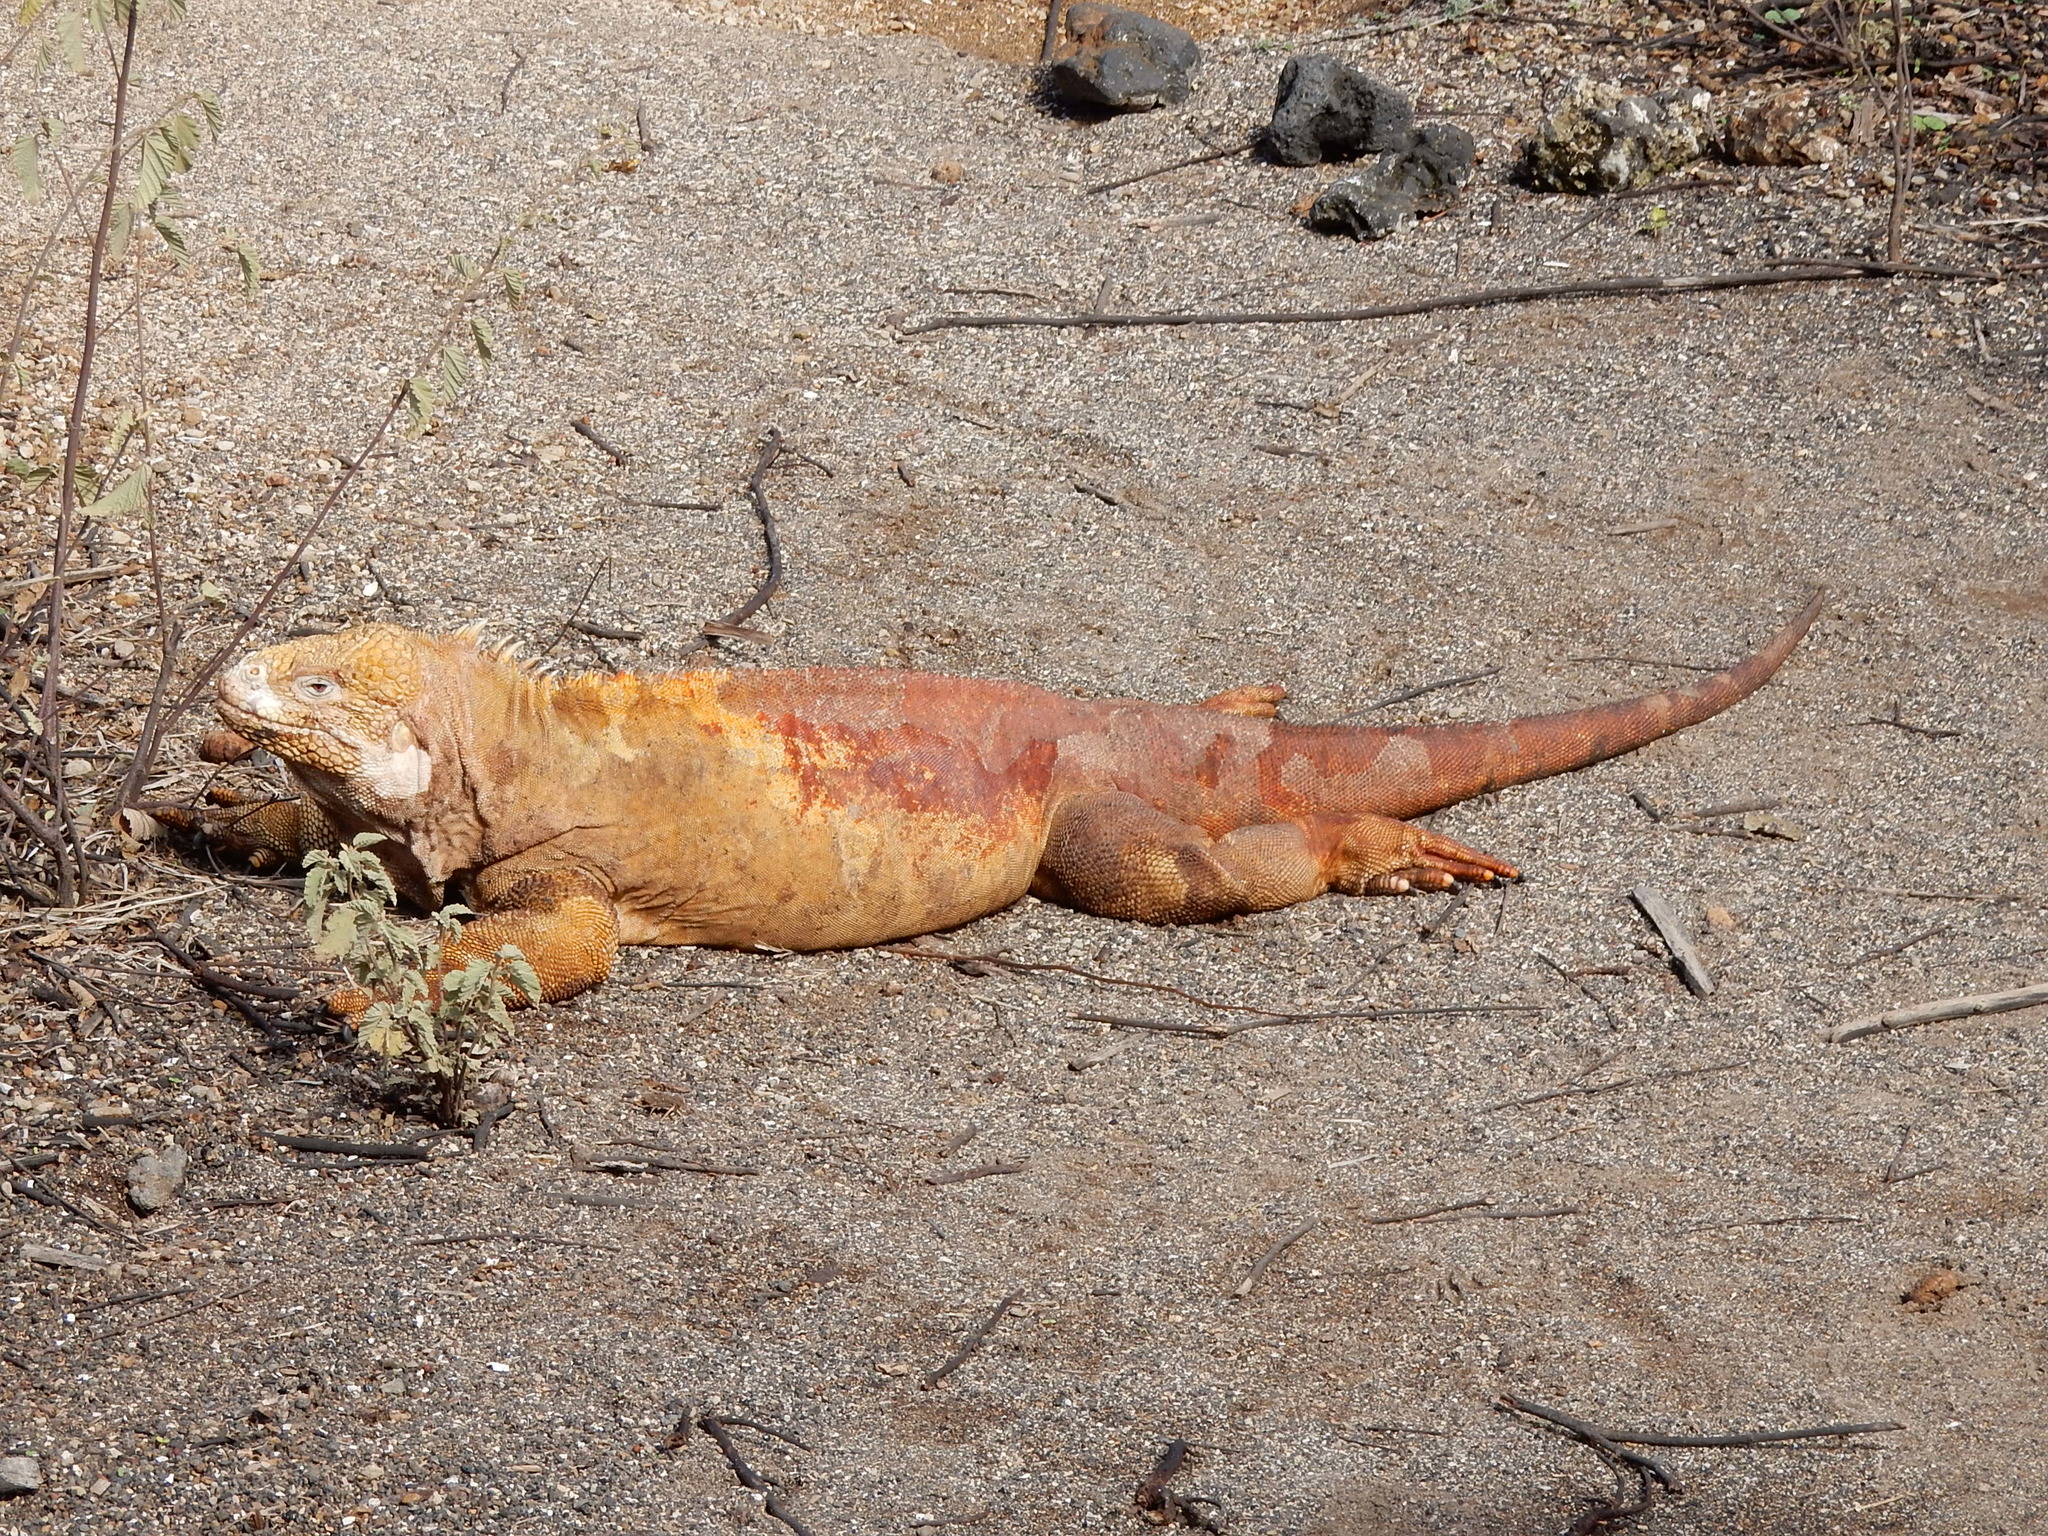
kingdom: Animalia
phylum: Chordata
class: Squamata
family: Iguanidae
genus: Conolophus
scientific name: Conolophus subcristatus
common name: Galapagos land iguana
